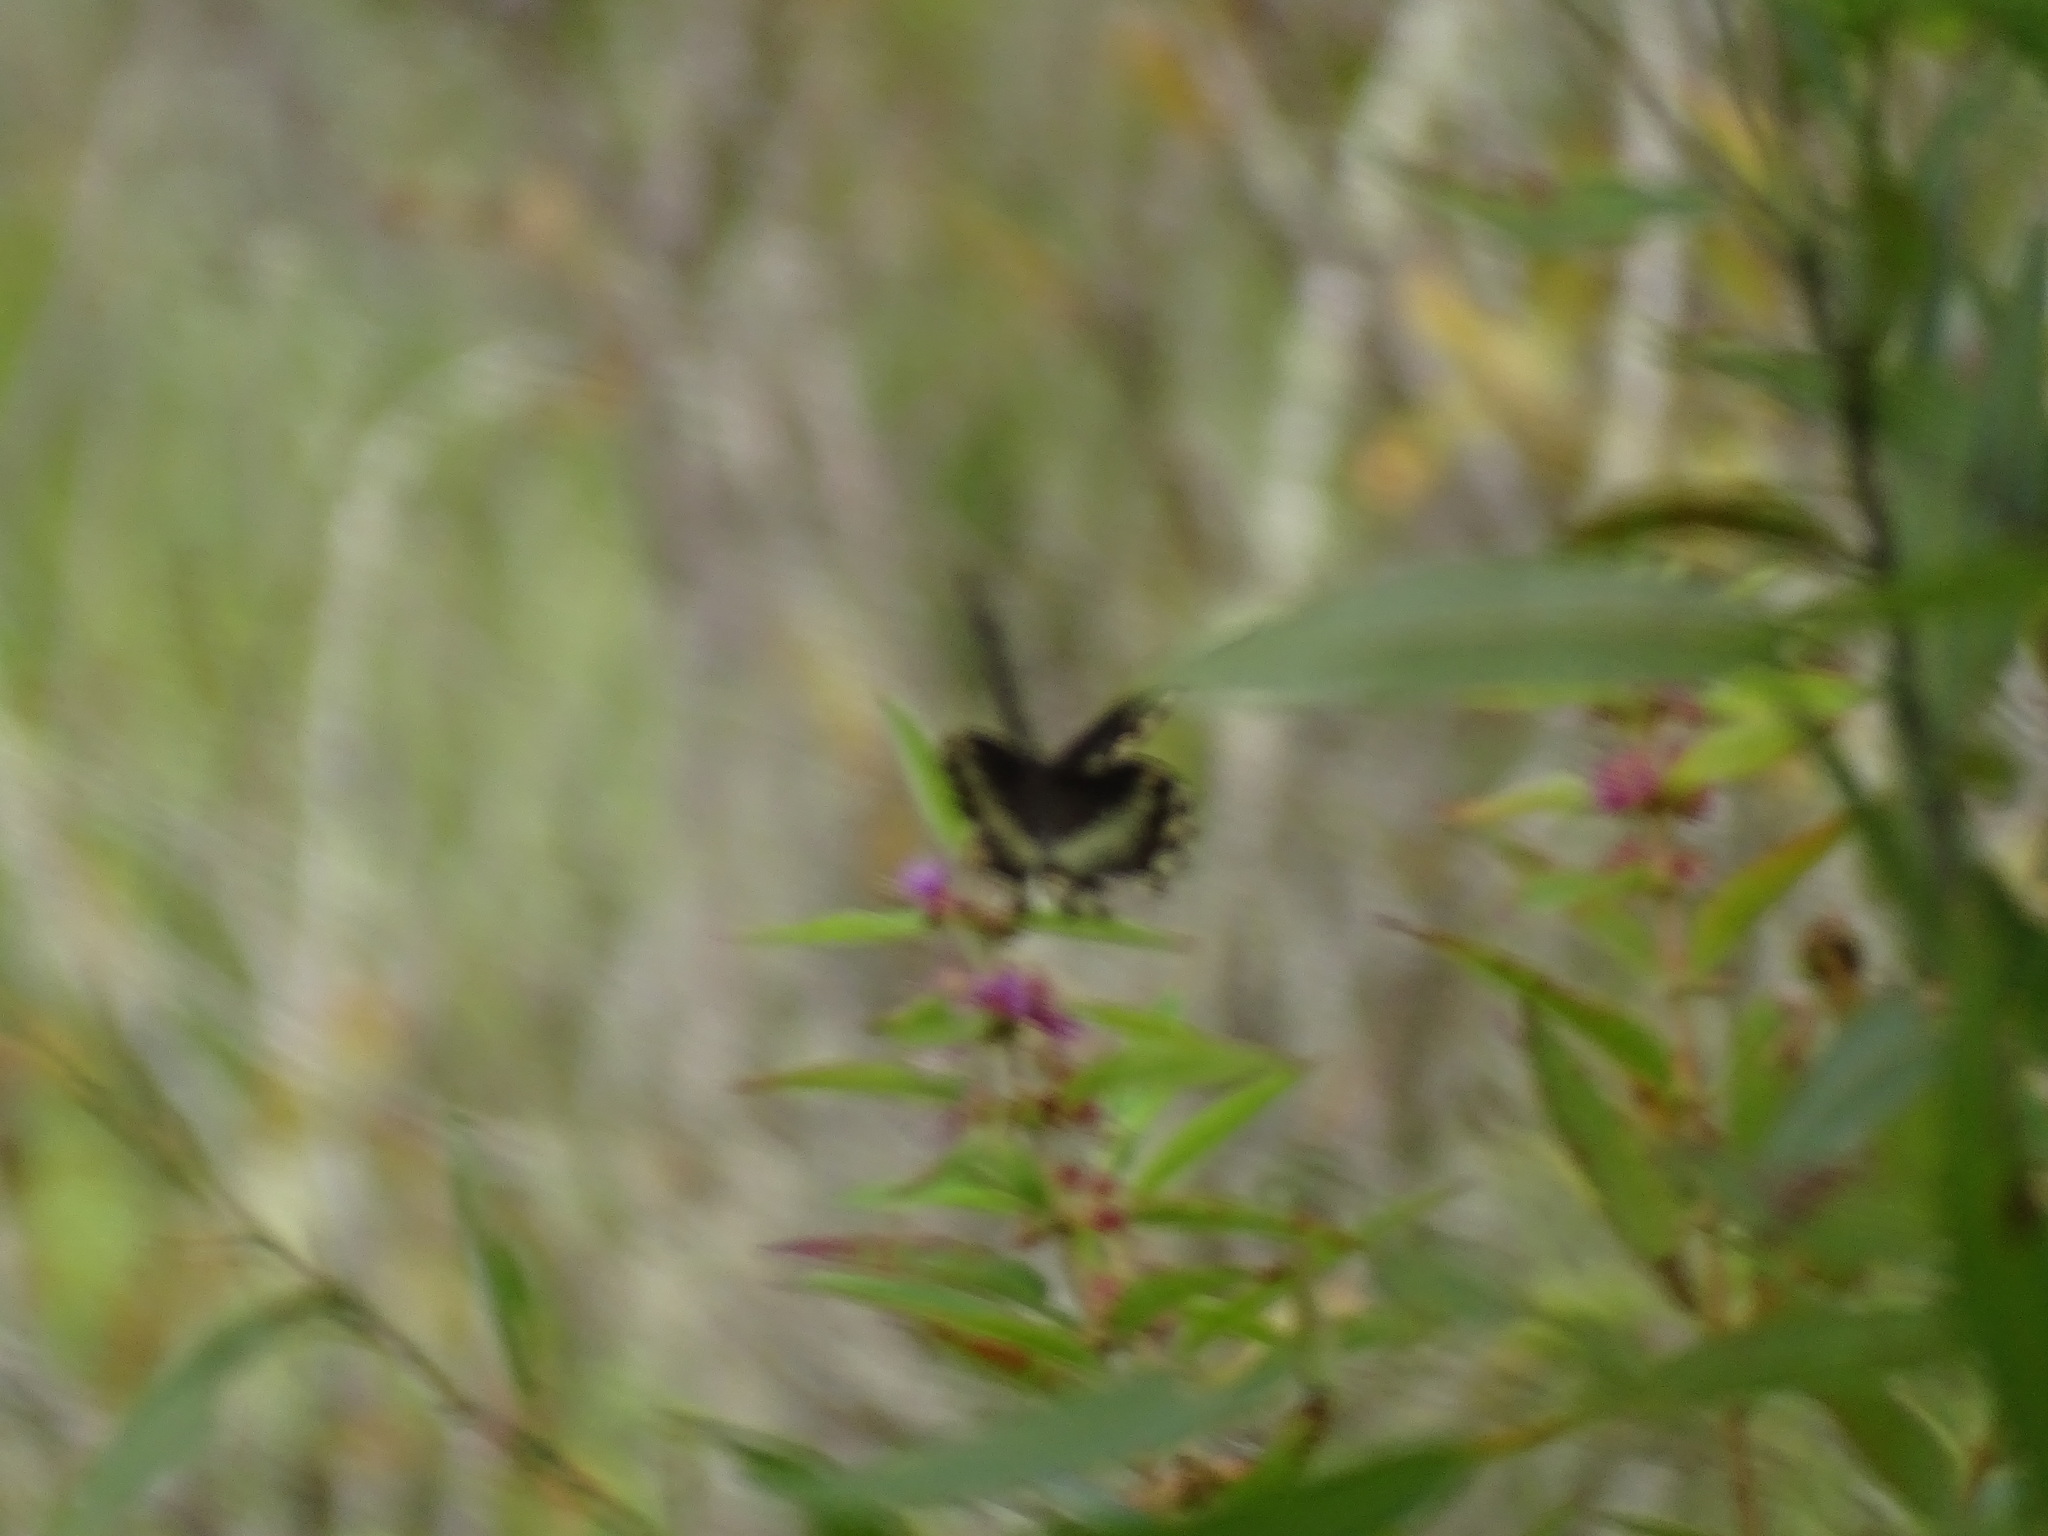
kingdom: Animalia
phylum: Arthropoda
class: Insecta
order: Lepidoptera
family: Papilionidae
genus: Papilio
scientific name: Papilio troilus
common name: Spicebush swallowtail
